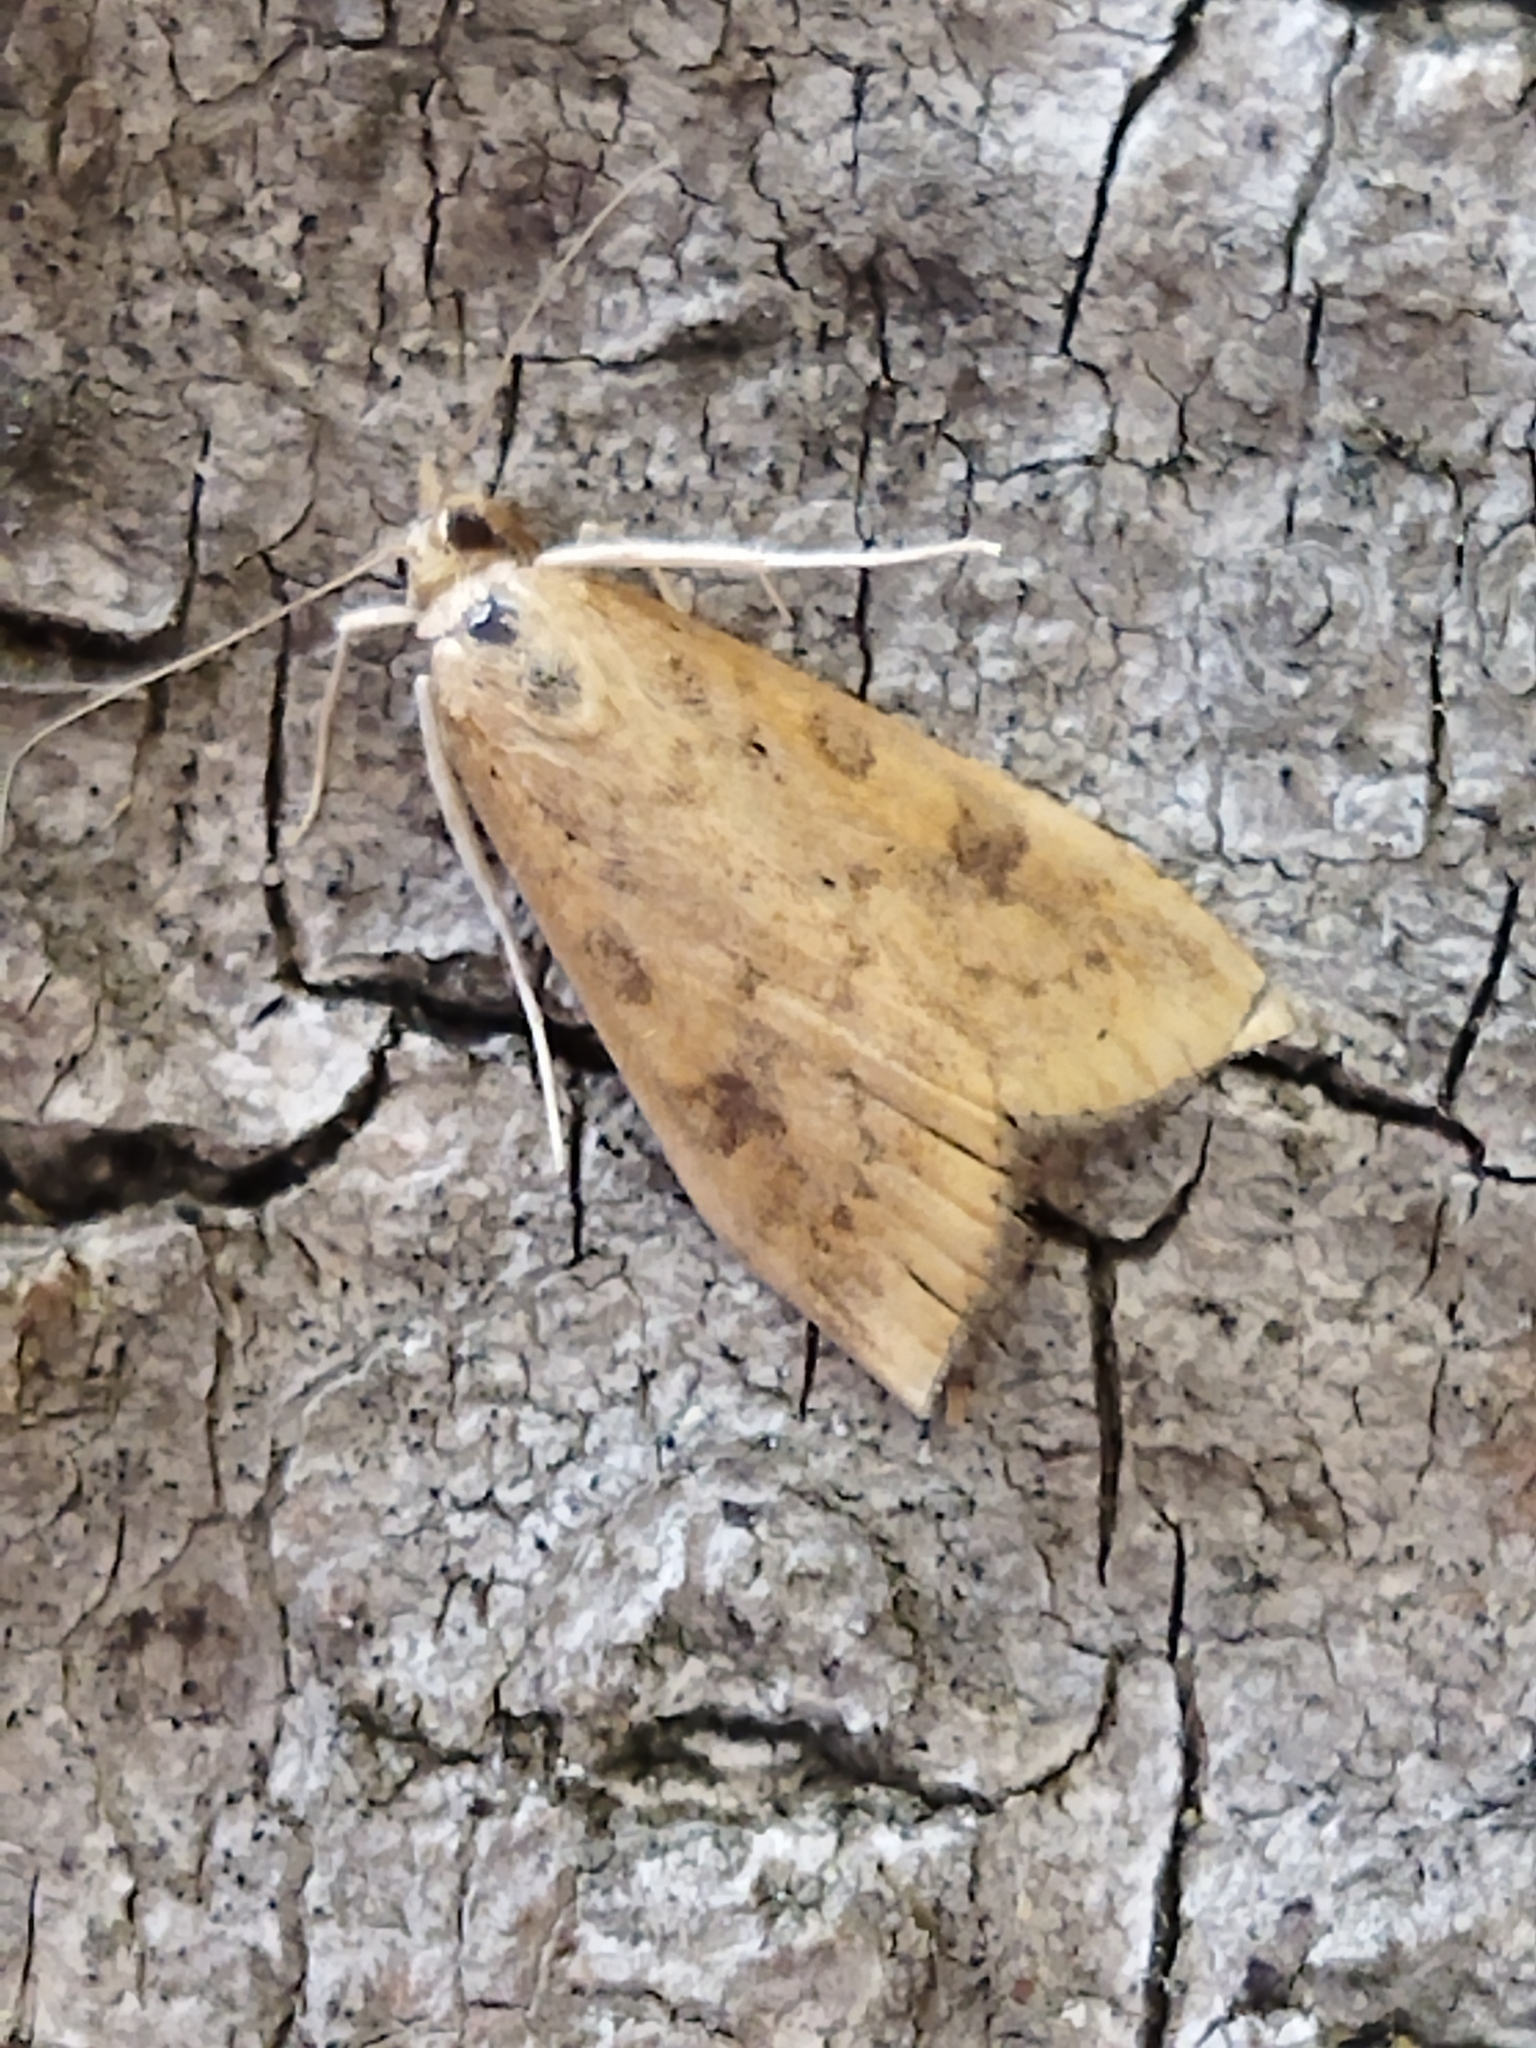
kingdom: Animalia
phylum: Arthropoda
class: Insecta
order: Lepidoptera
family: Crambidae
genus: Udea
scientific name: Udea ferrugalis
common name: Rusty dot
